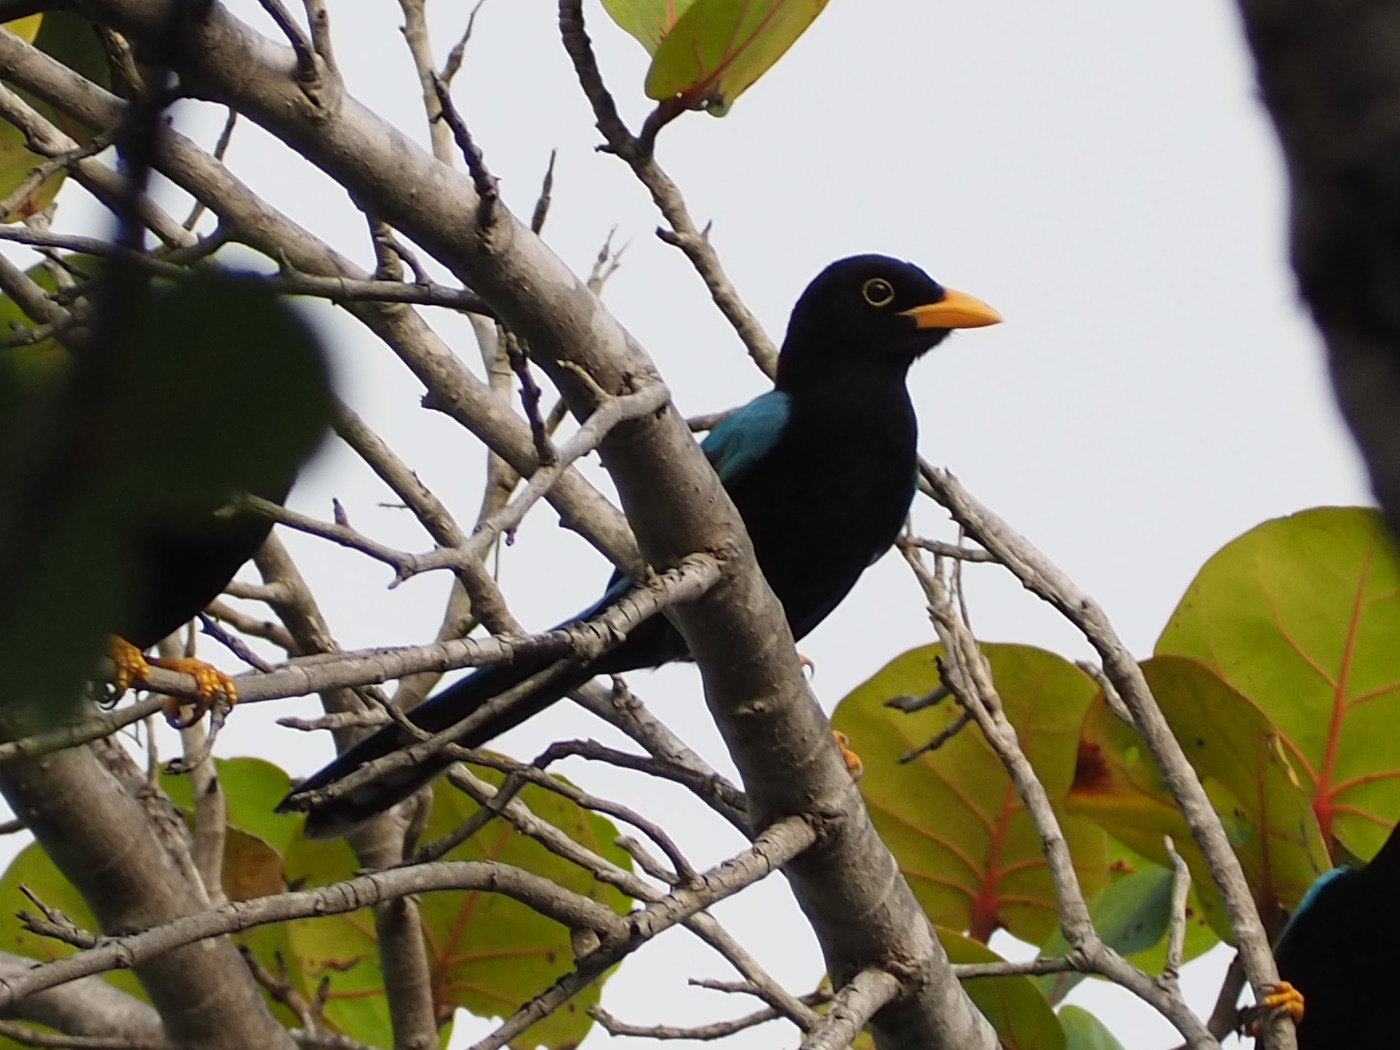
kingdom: Animalia
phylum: Chordata
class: Aves
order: Passeriformes
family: Corvidae
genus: Cyanocorax
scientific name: Cyanocorax yucatanicus
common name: Yucatan jay
